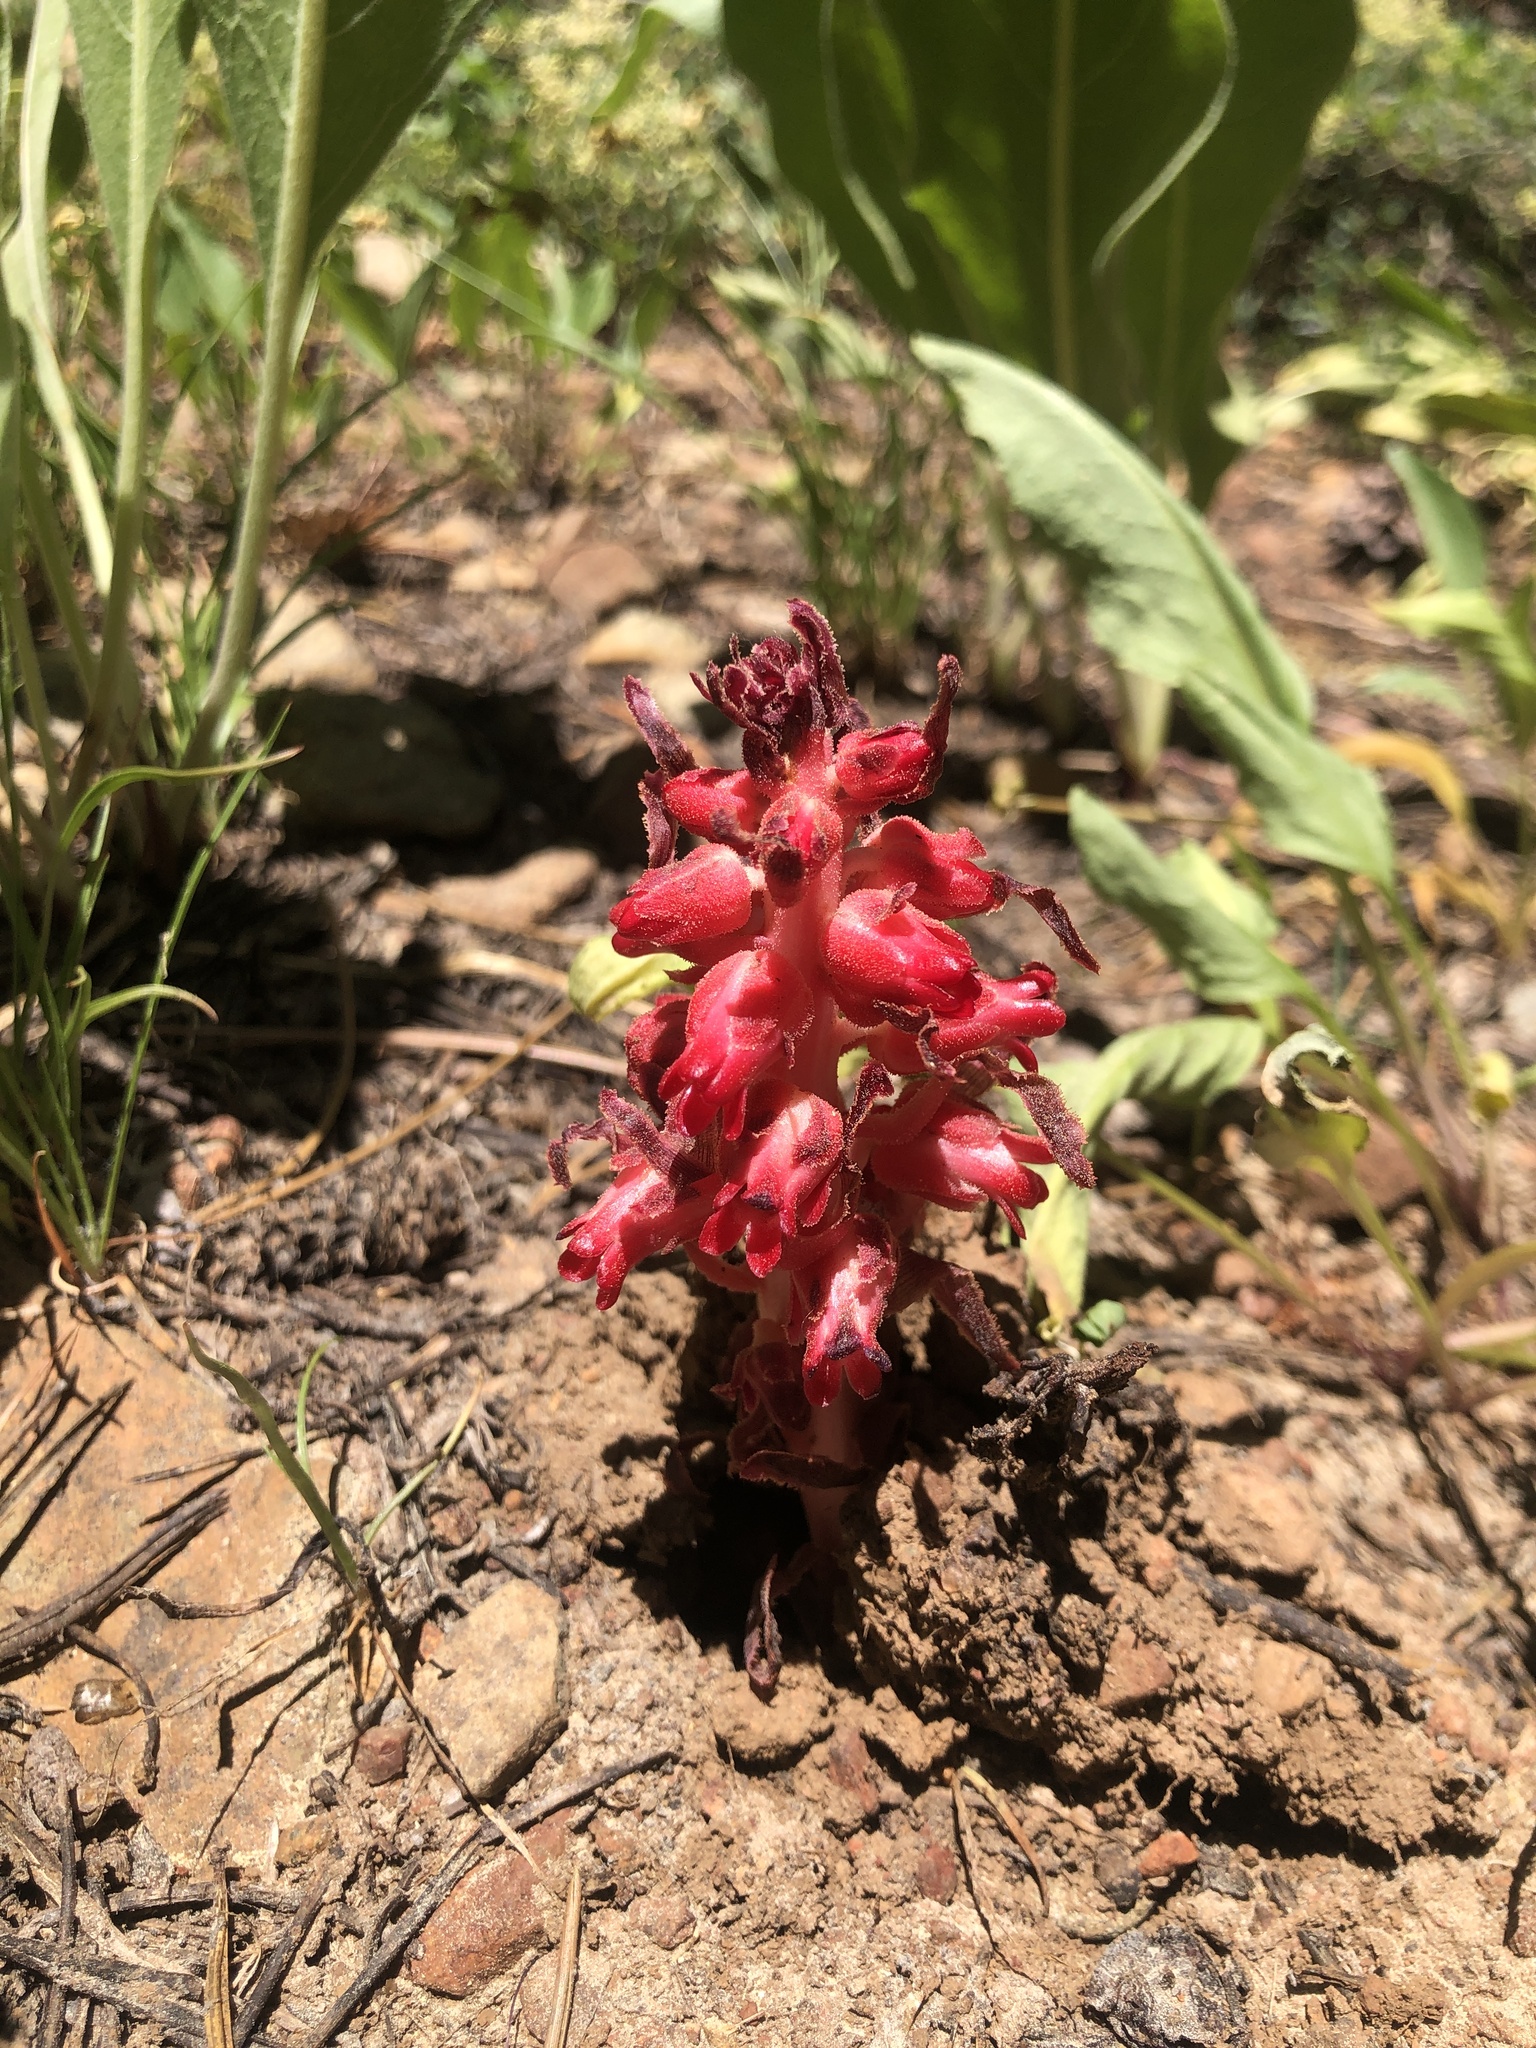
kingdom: Plantae
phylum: Tracheophyta
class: Magnoliopsida
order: Ericales
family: Ericaceae
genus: Sarcodes
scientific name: Sarcodes sanguinea
